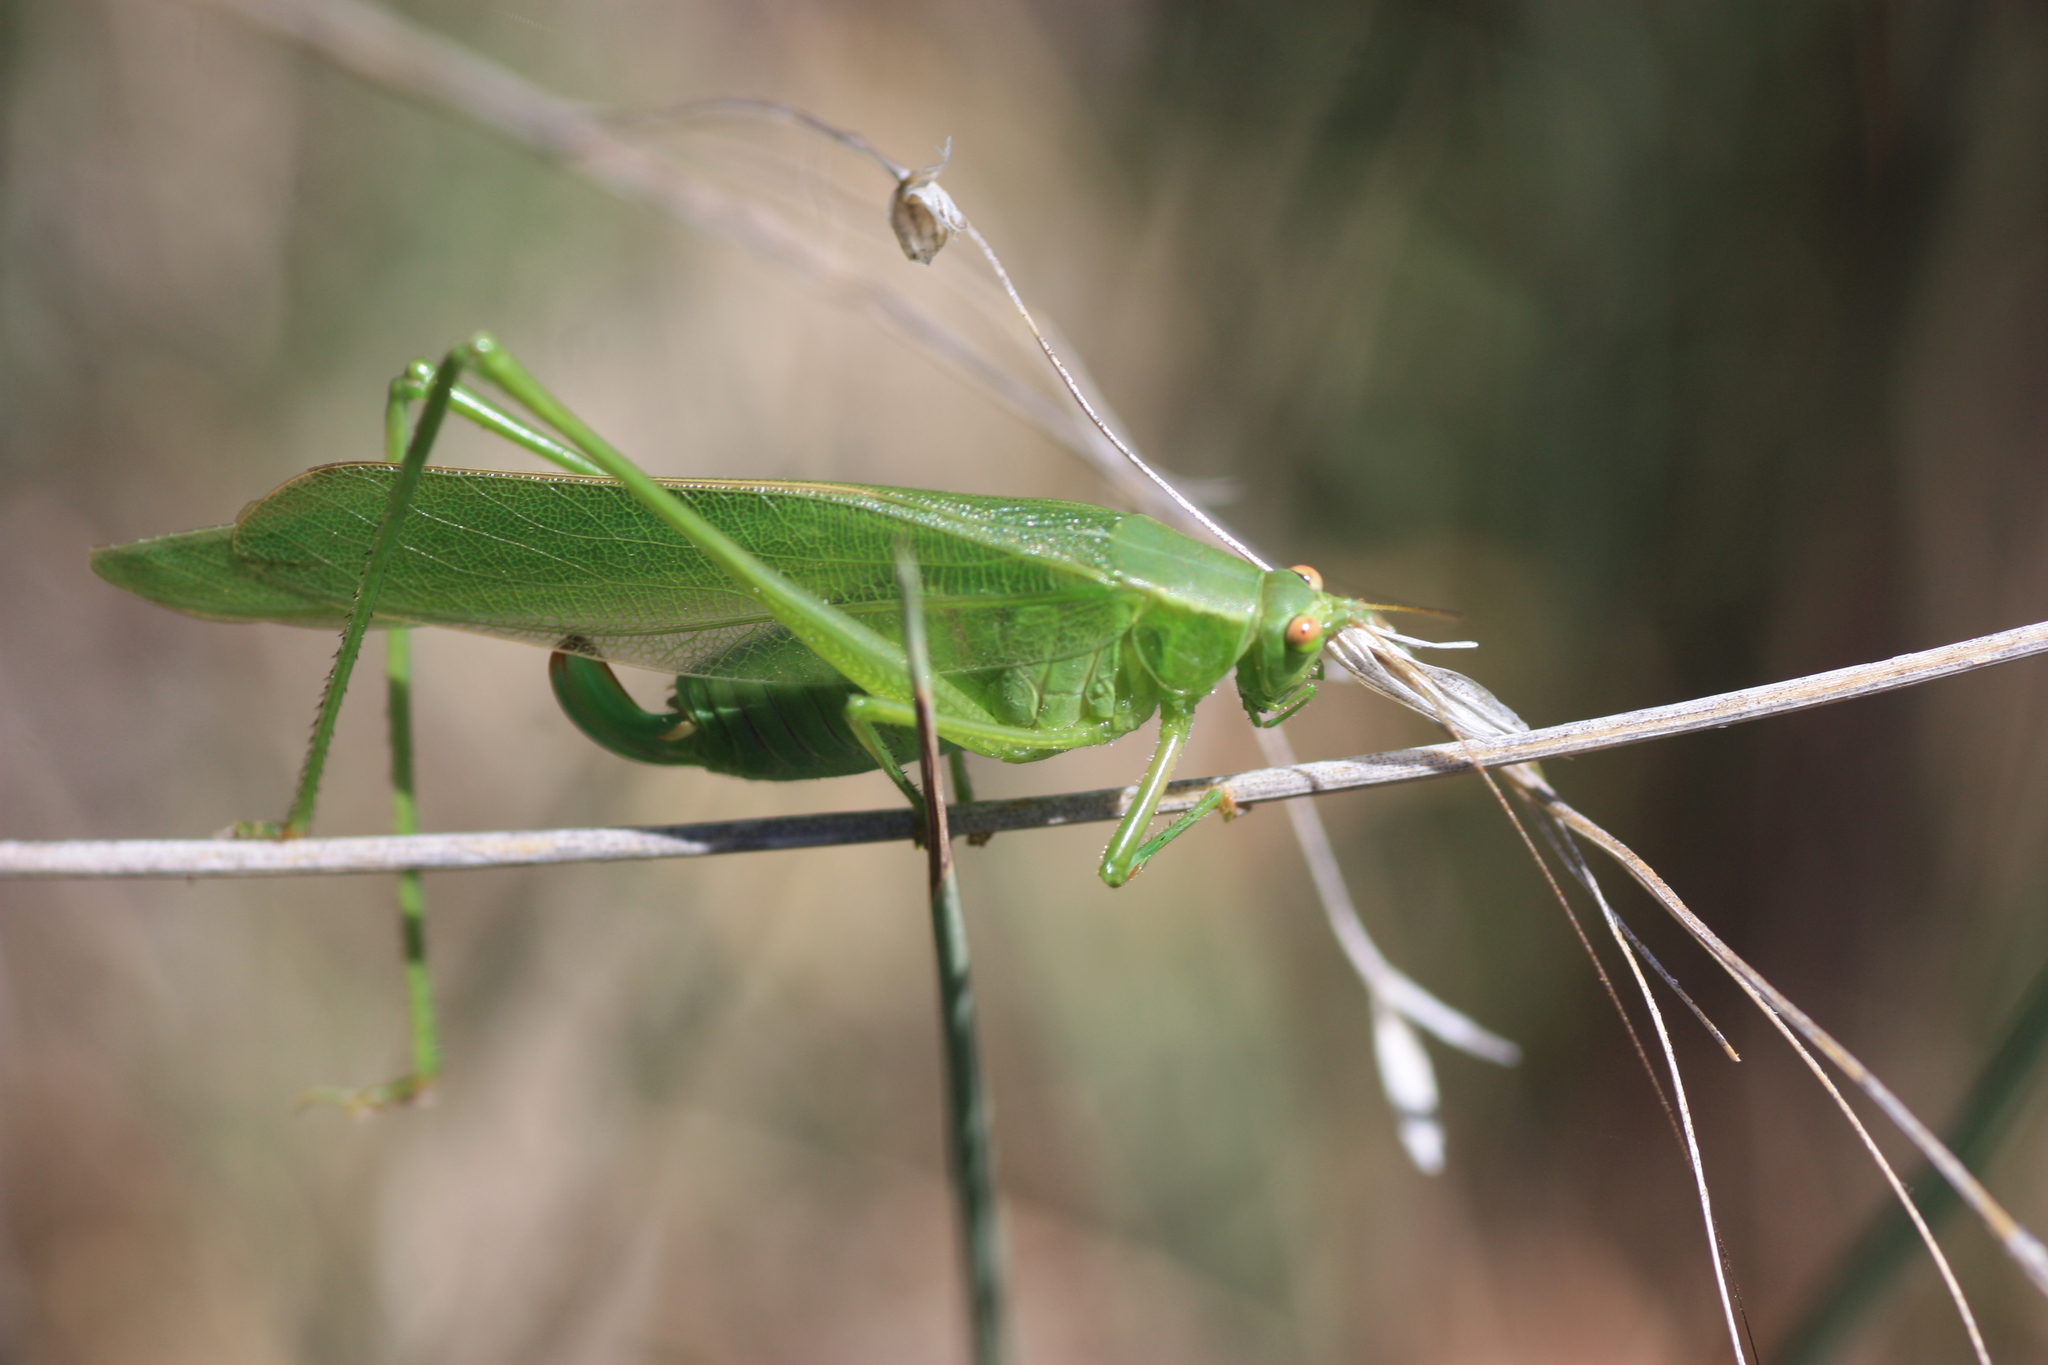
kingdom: Animalia
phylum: Arthropoda
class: Insecta
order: Orthoptera
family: Tettigoniidae
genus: Scudderia
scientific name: Scudderia mexicana
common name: Mexican bush katydid
